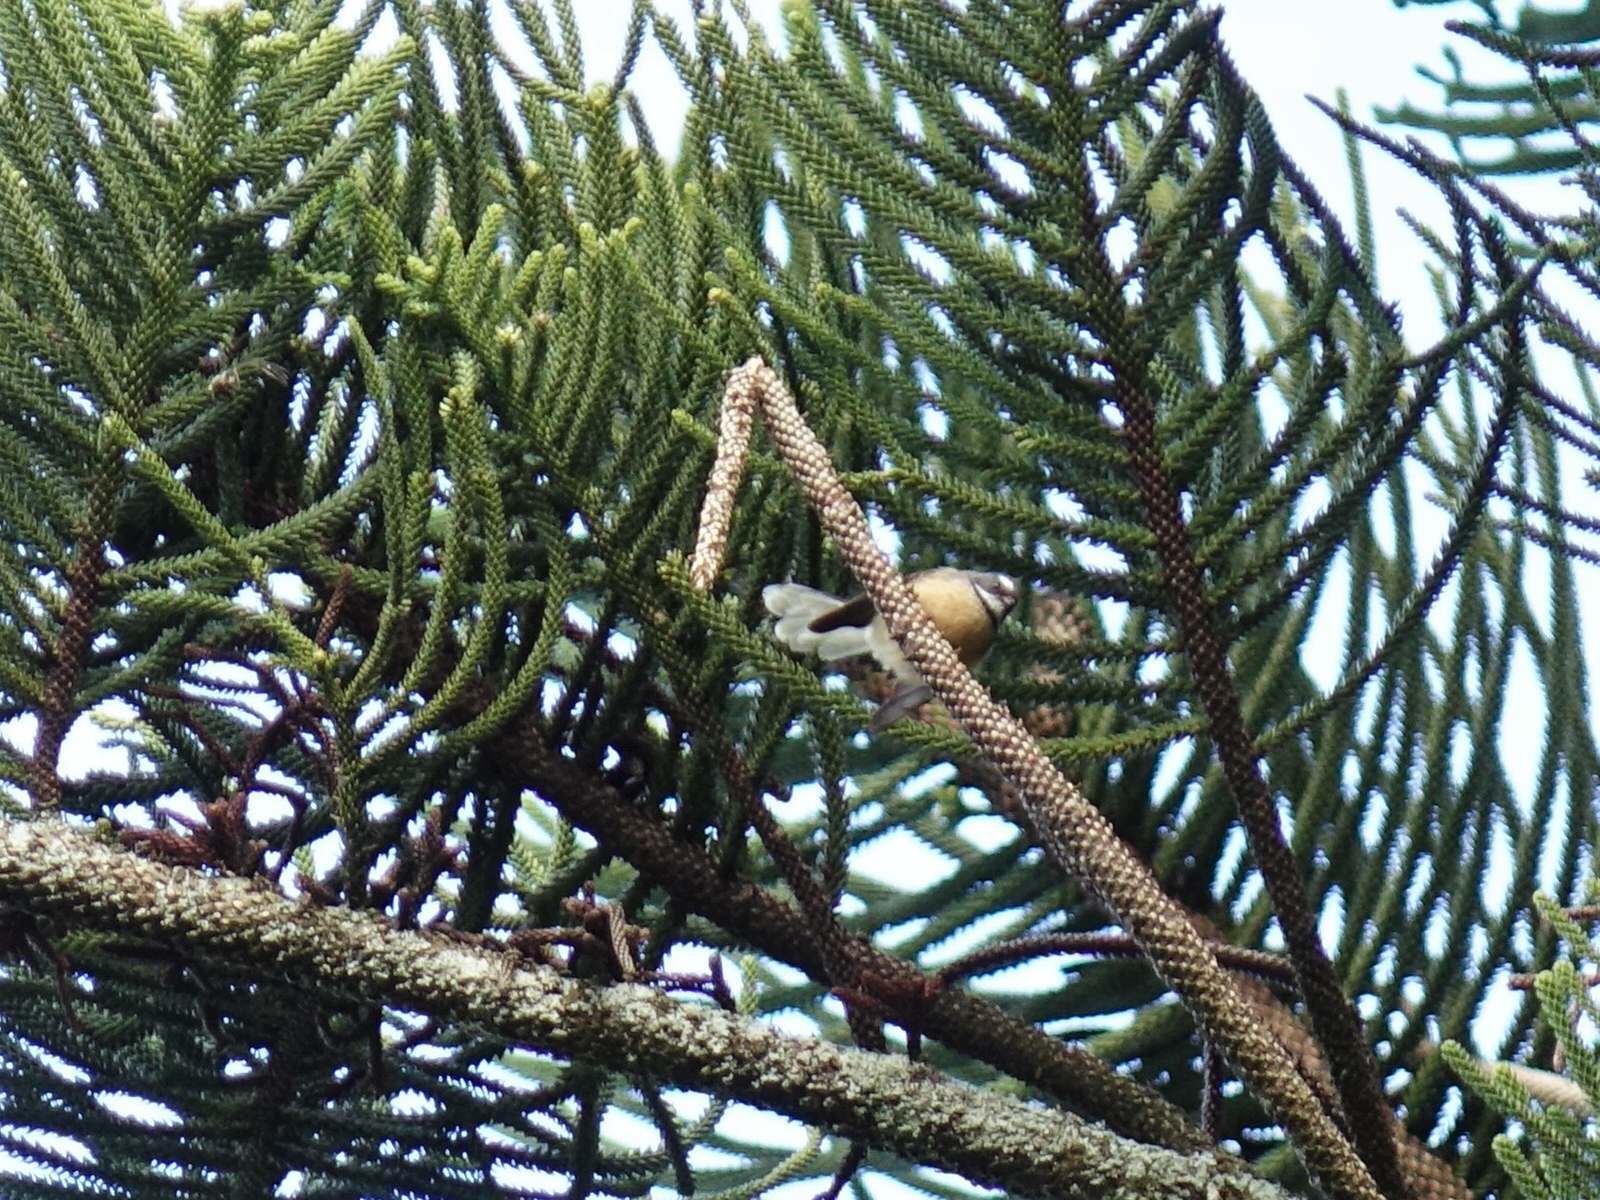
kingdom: Animalia
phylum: Chordata
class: Aves
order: Passeriformes
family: Rhipiduridae
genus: Rhipidura
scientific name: Rhipidura fuliginosa
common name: New zealand fantail
